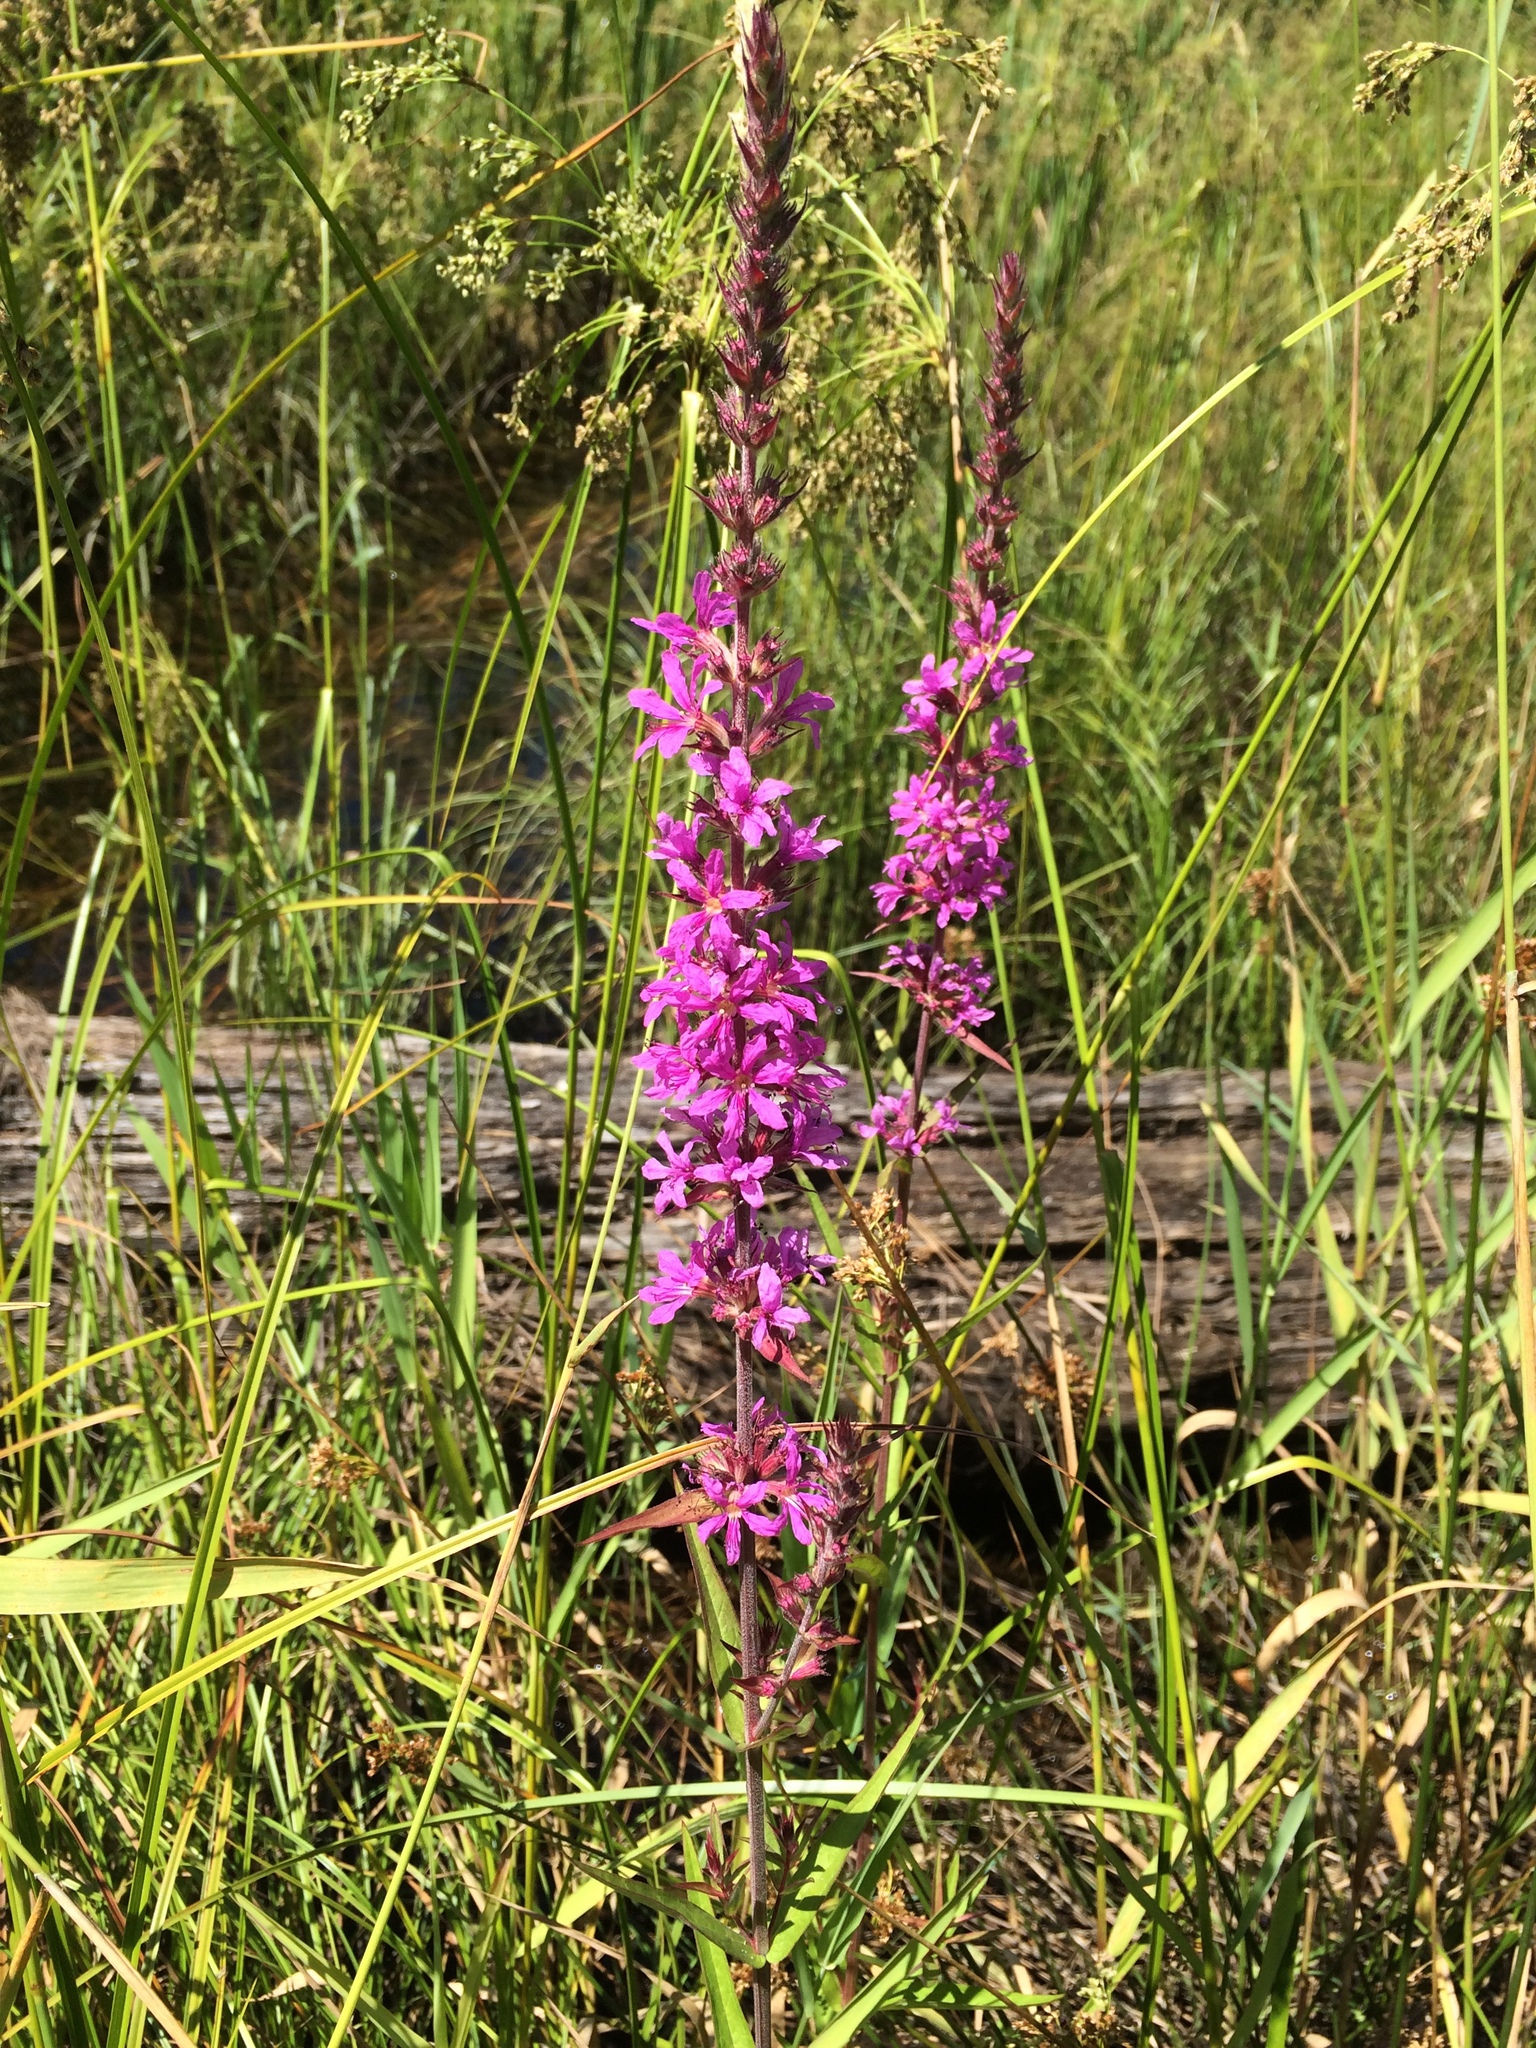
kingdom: Plantae
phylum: Tracheophyta
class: Magnoliopsida
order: Myrtales
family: Lythraceae
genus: Lythrum
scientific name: Lythrum salicaria
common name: Purple loosestrife
